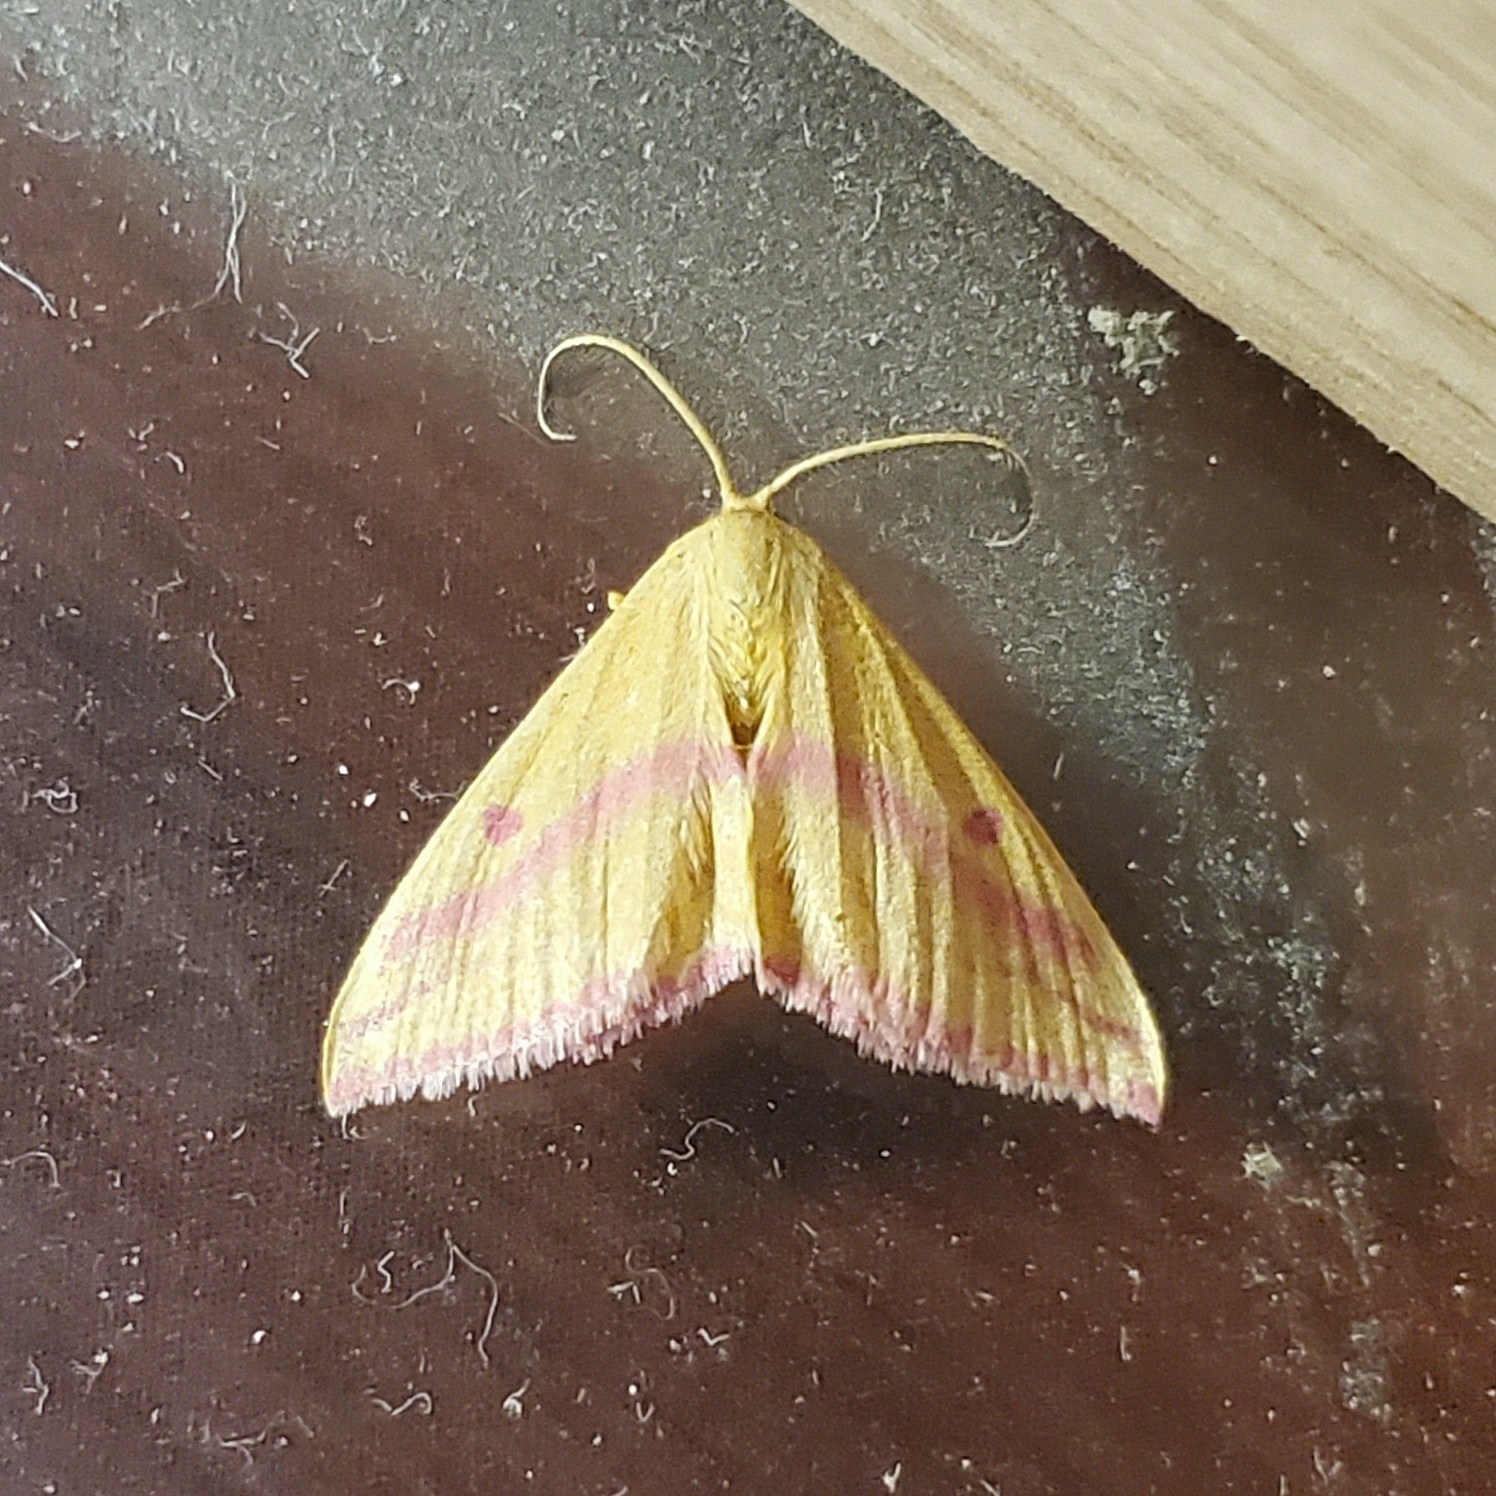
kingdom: Animalia
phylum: Arthropoda
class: Insecta
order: Lepidoptera
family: Geometridae
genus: Haematopis
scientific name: Haematopis grataria
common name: Chickweed geometer
